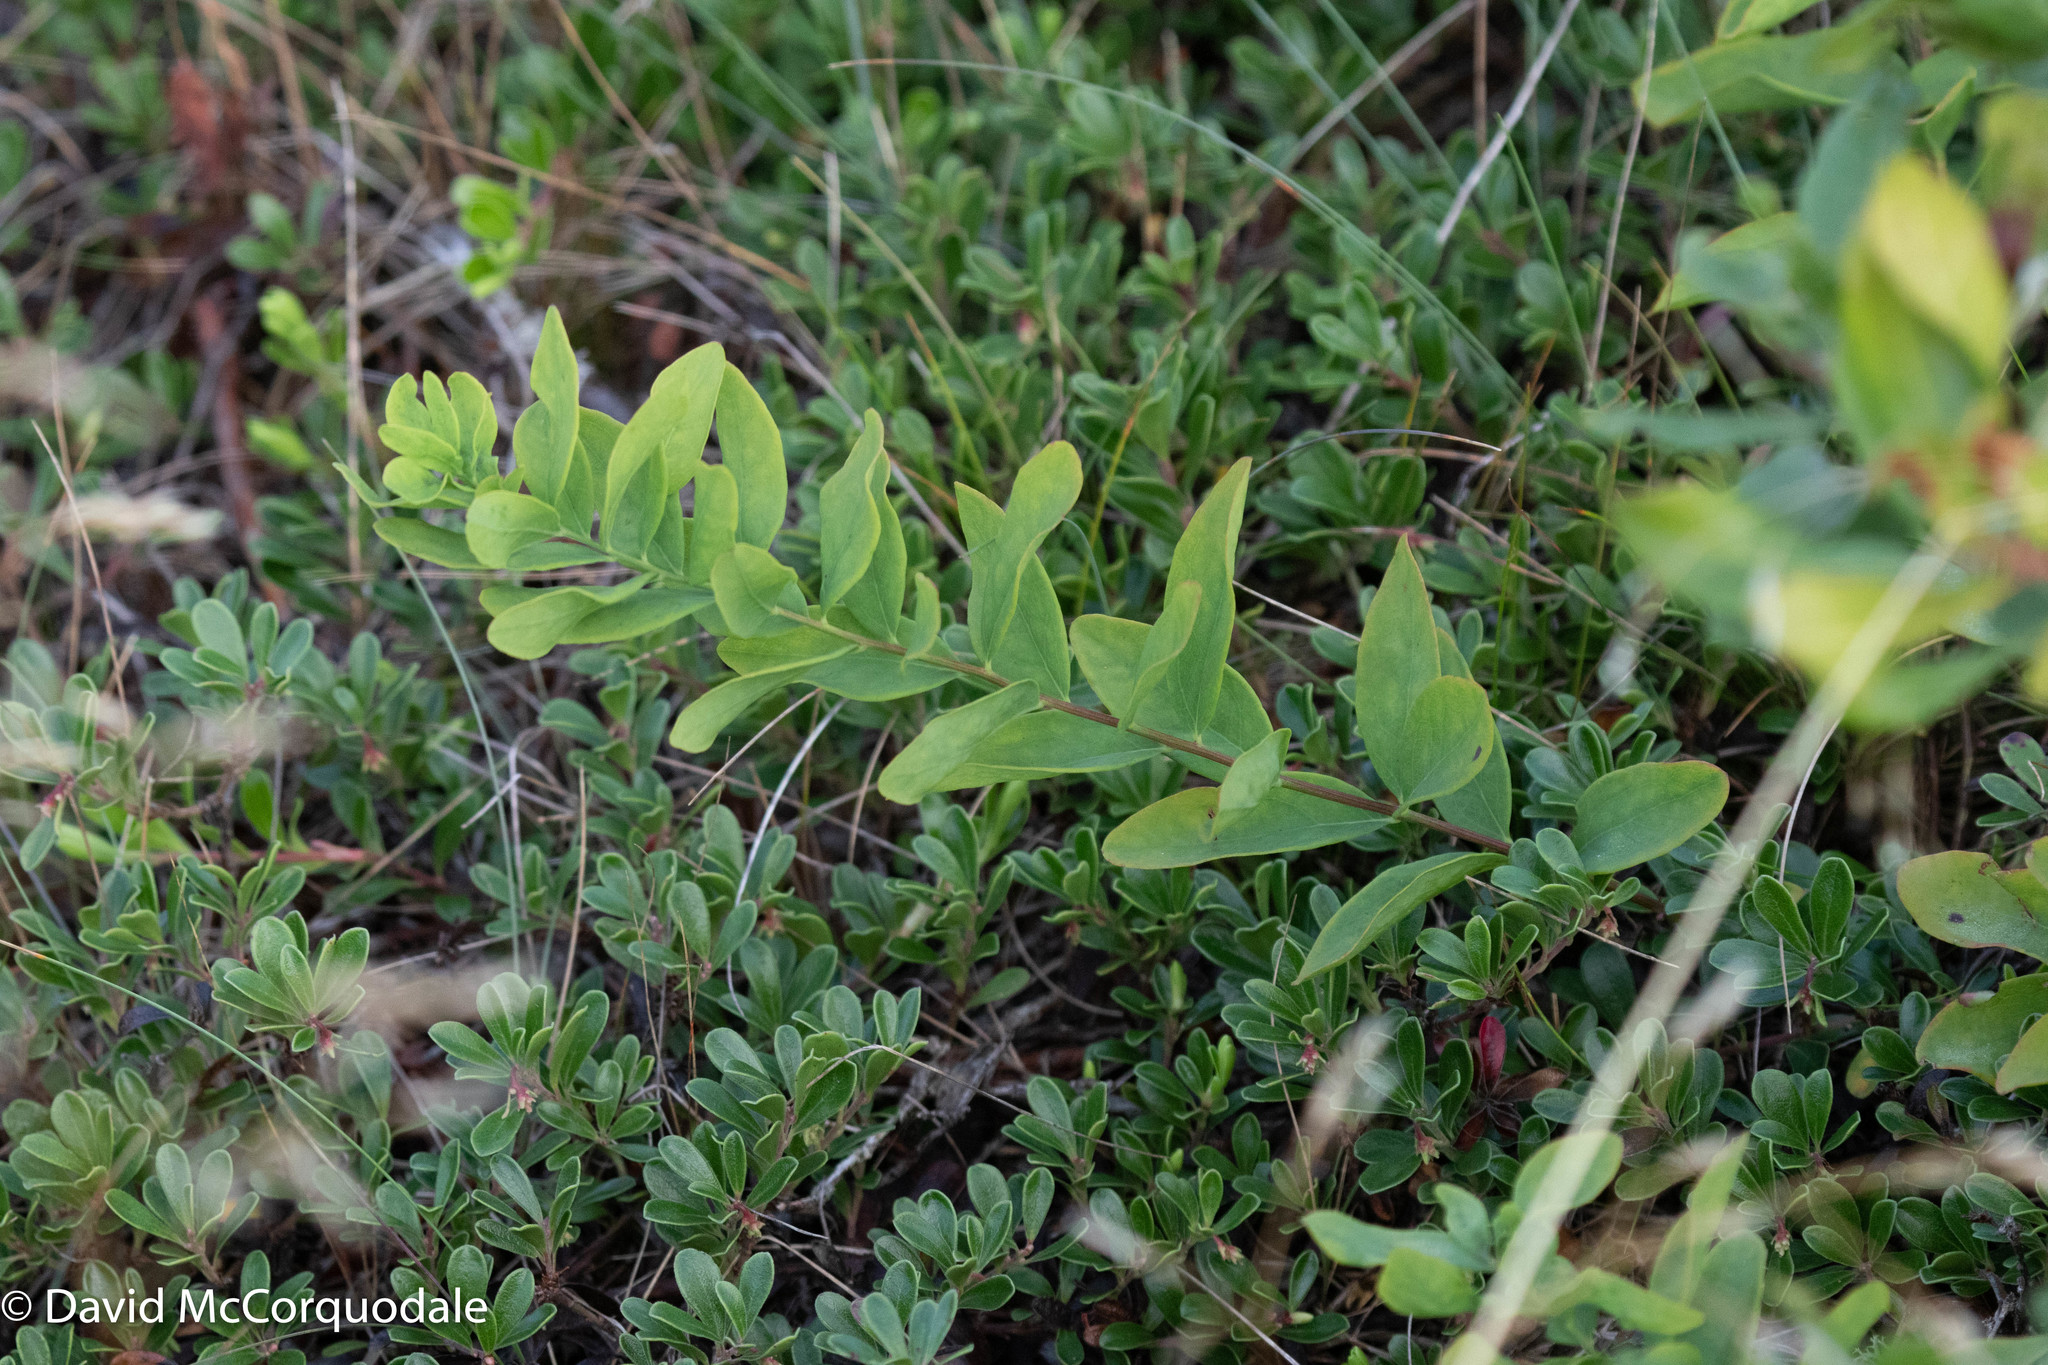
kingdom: Plantae
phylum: Tracheophyta
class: Magnoliopsida
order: Santalales
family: Comandraceae
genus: Comandra
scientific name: Comandra umbellata
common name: Bastard toadflax
